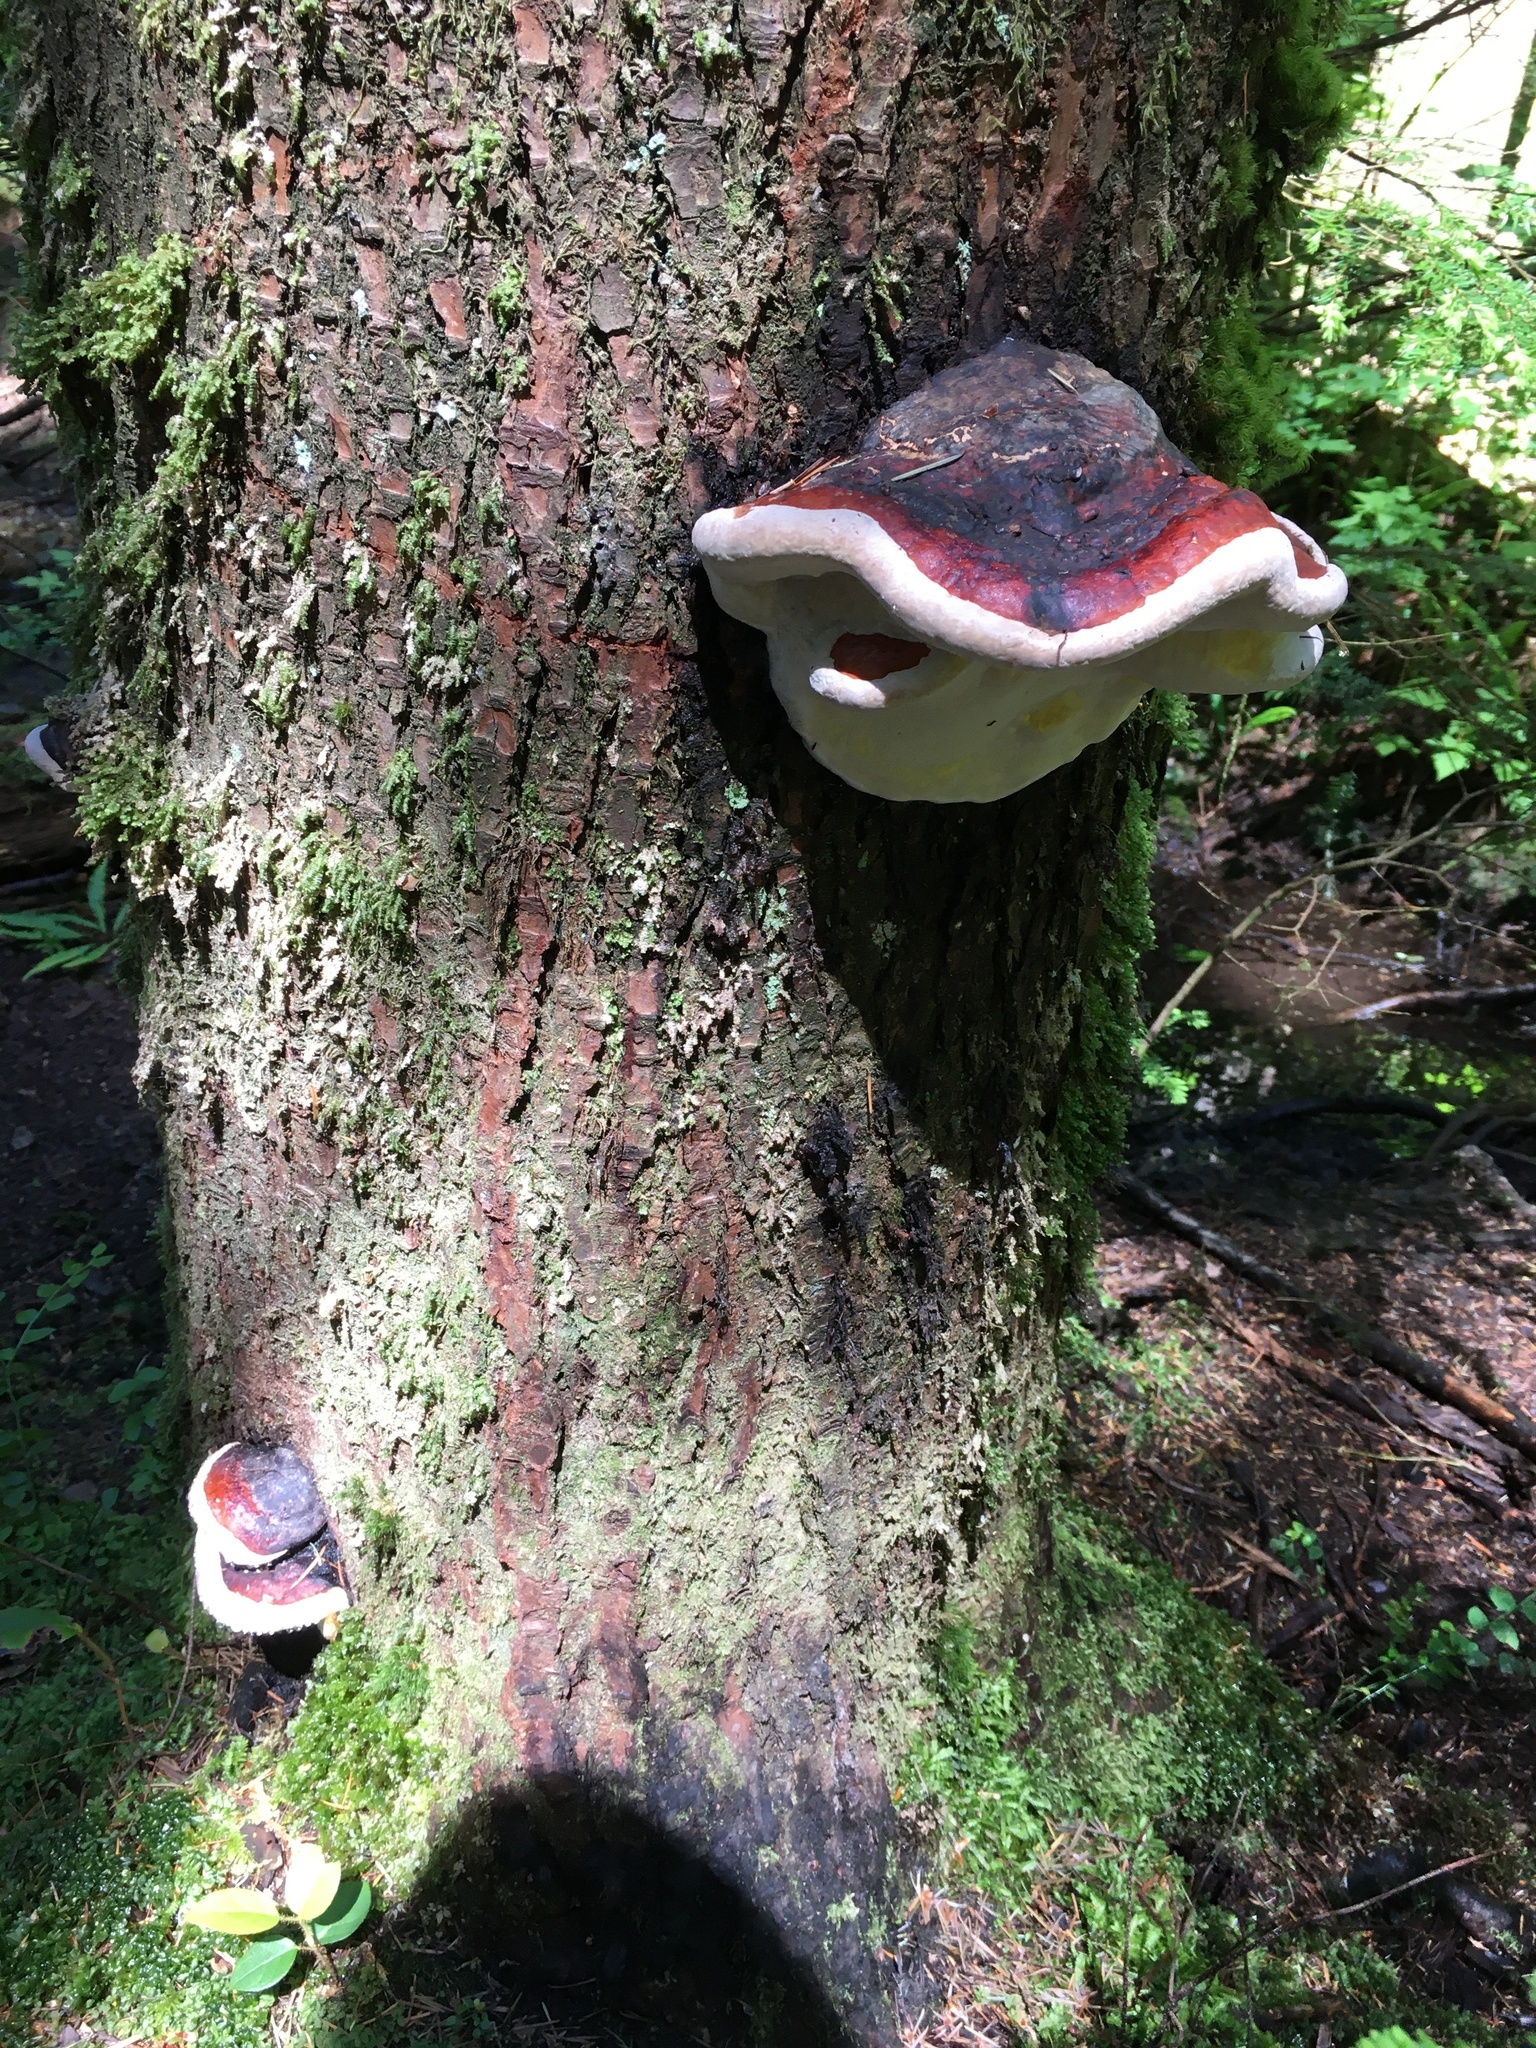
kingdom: Fungi
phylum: Basidiomycota
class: Agaricomycetes
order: Polyporales
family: Fomitopsidaceae
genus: Fomitopsis
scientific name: Fomitopsis mounceae
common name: Northern red belt
